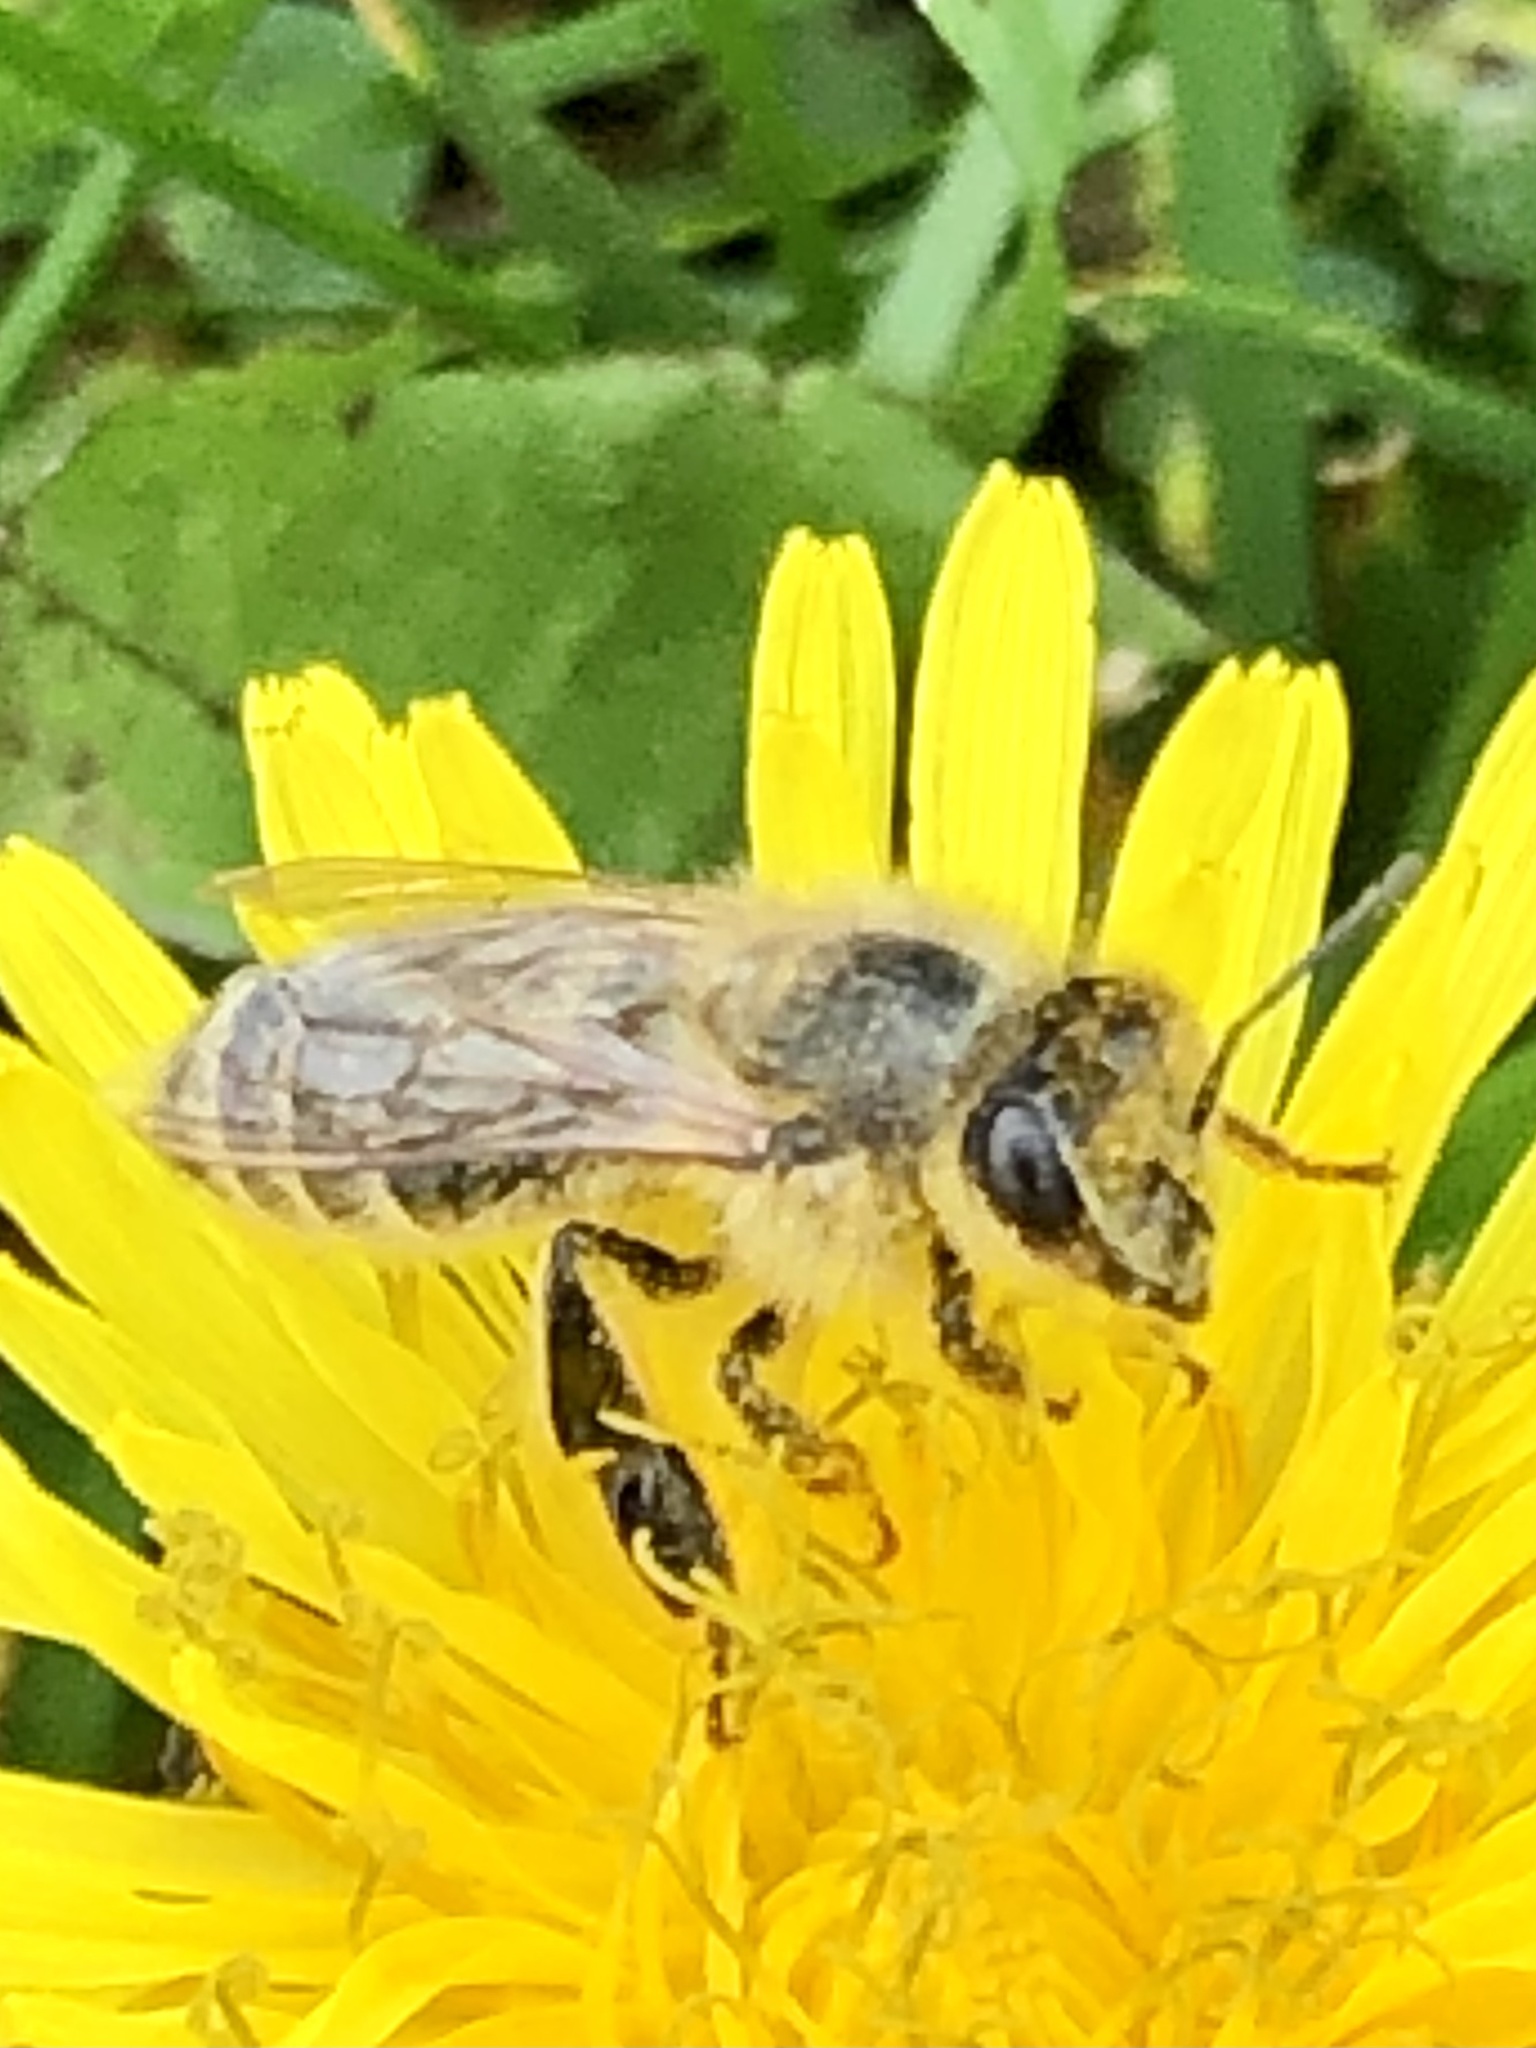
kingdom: Animalia
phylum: Arthropoda
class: Insecta
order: Hymenoptera
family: Apidae
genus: Apis
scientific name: Apis mellifera
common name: Honey bee
